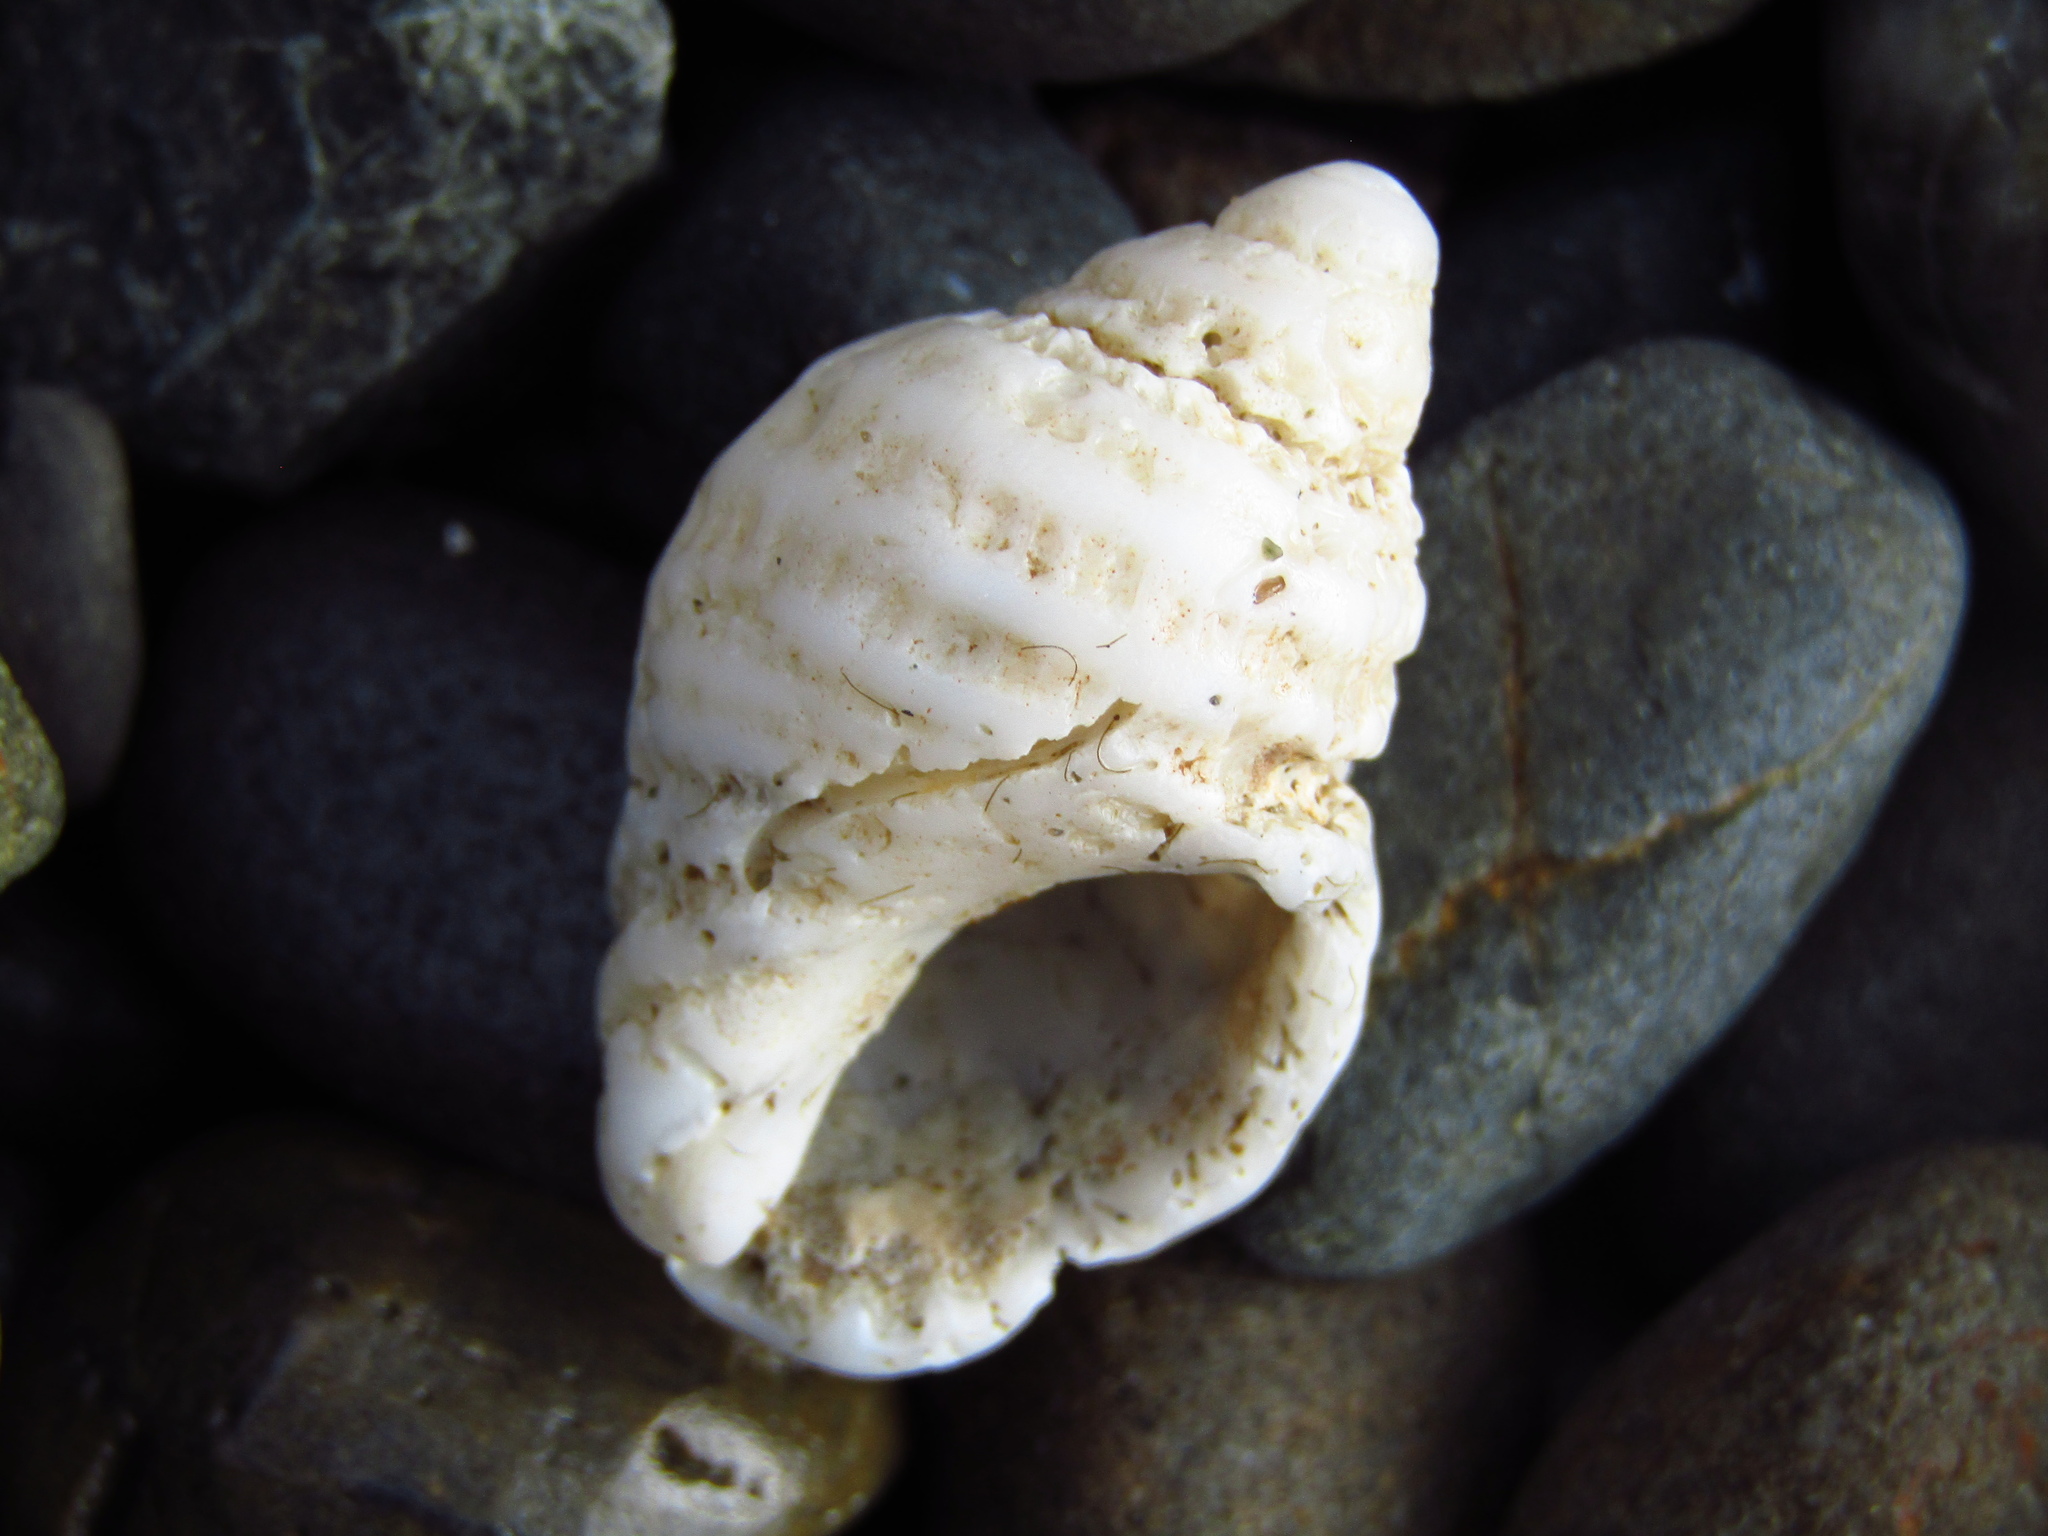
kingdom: Animalia
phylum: Mollusca
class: Gastropoda
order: Neogastropoda
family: Muricidae
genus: Haustrum
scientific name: Haustrum lacunosum
